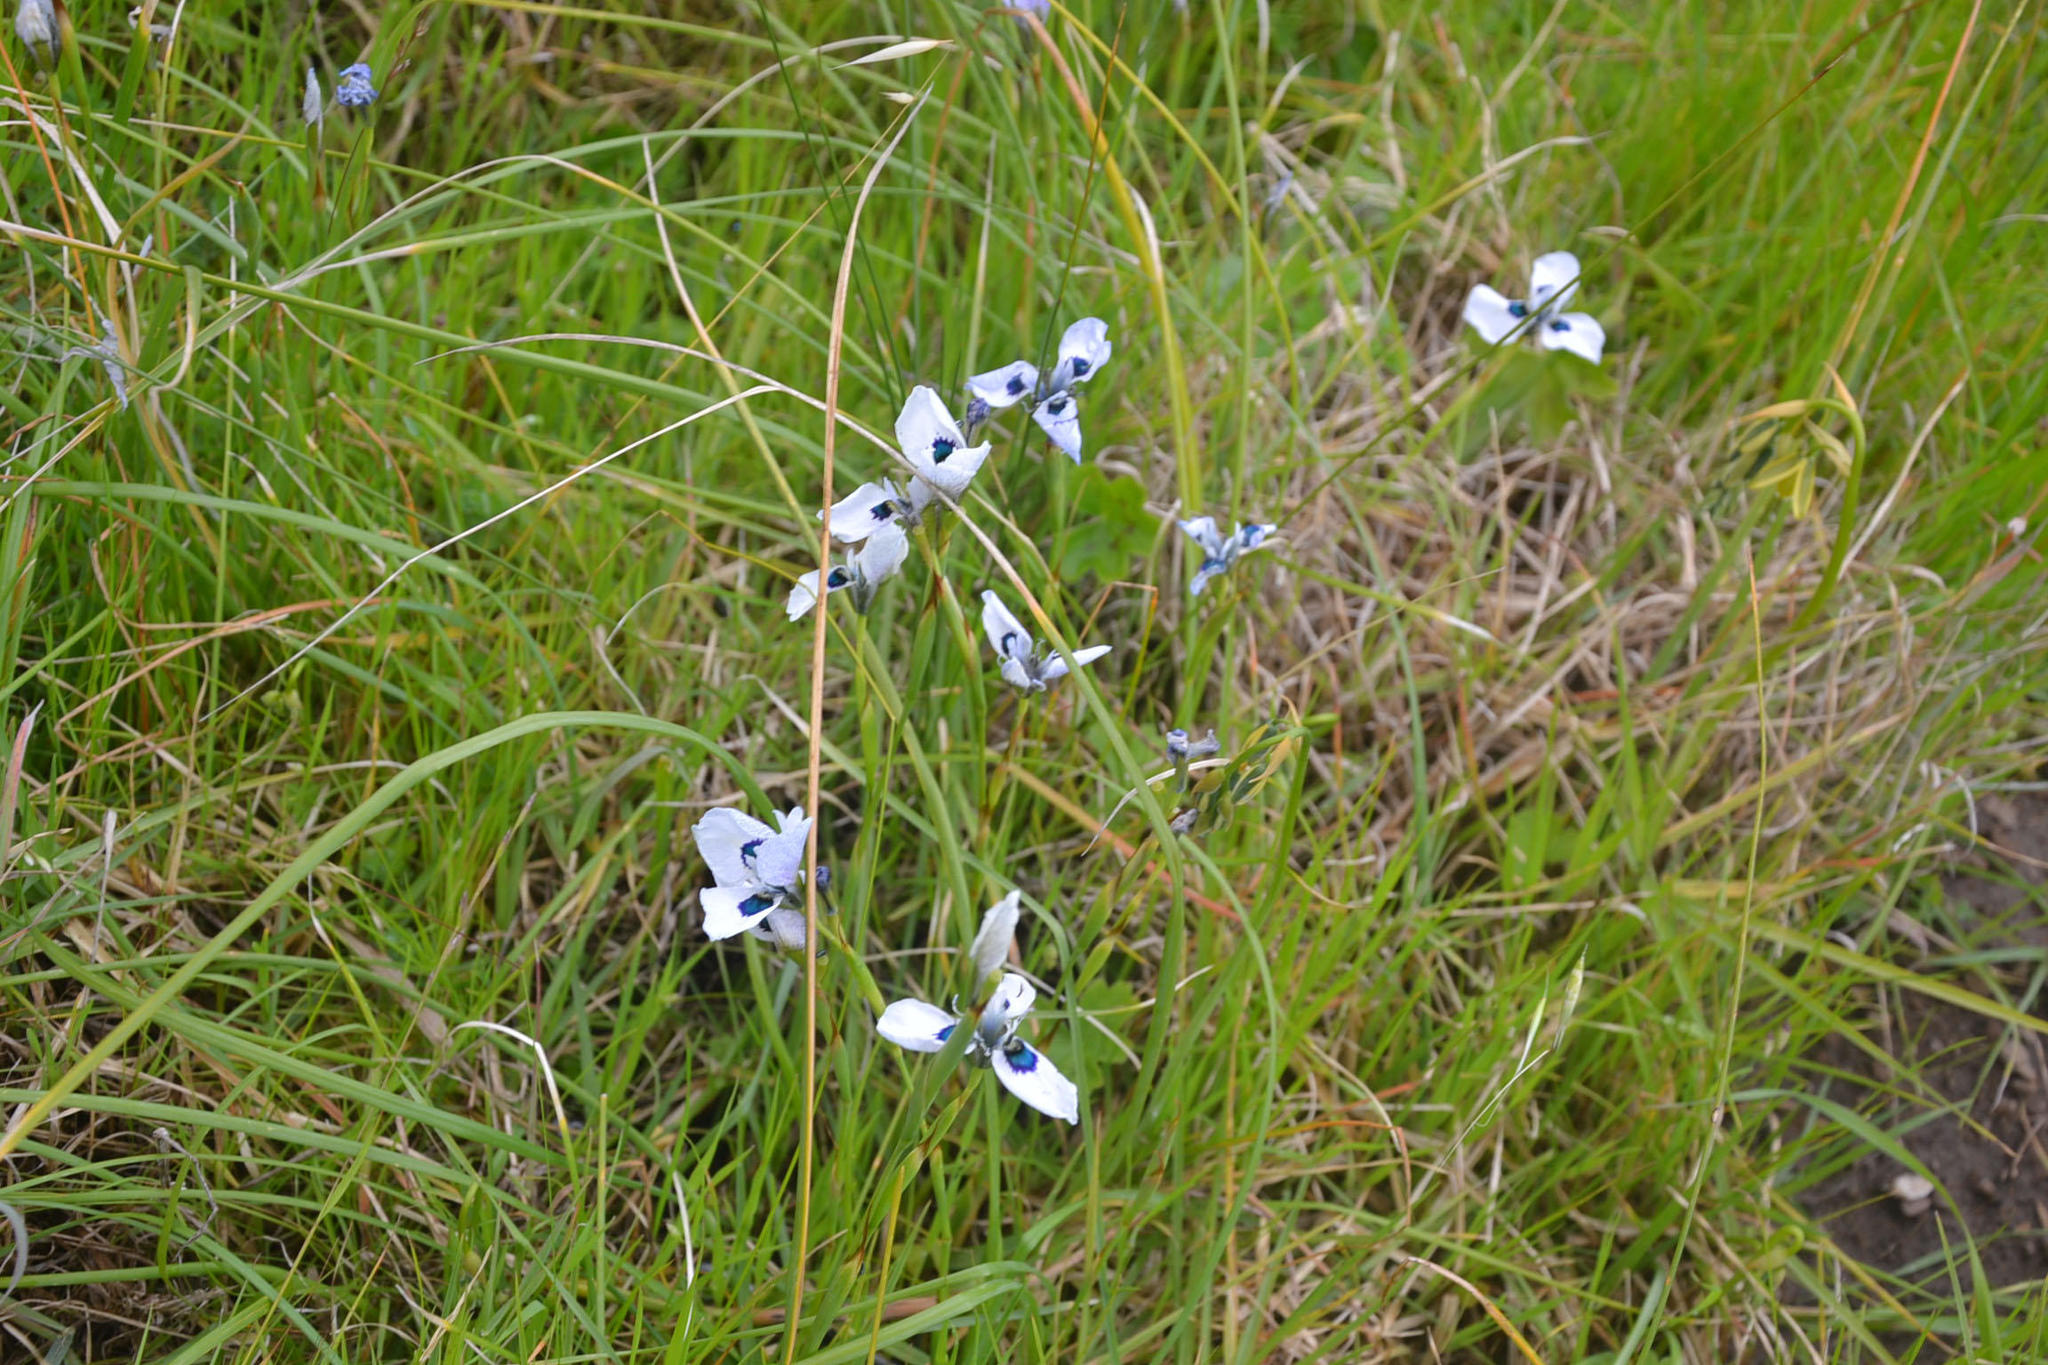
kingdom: Plantae
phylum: Tracheophyta
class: Liliopsida
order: Asparagales
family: Iridaceae
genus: Moraea
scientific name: Moraea aristata
